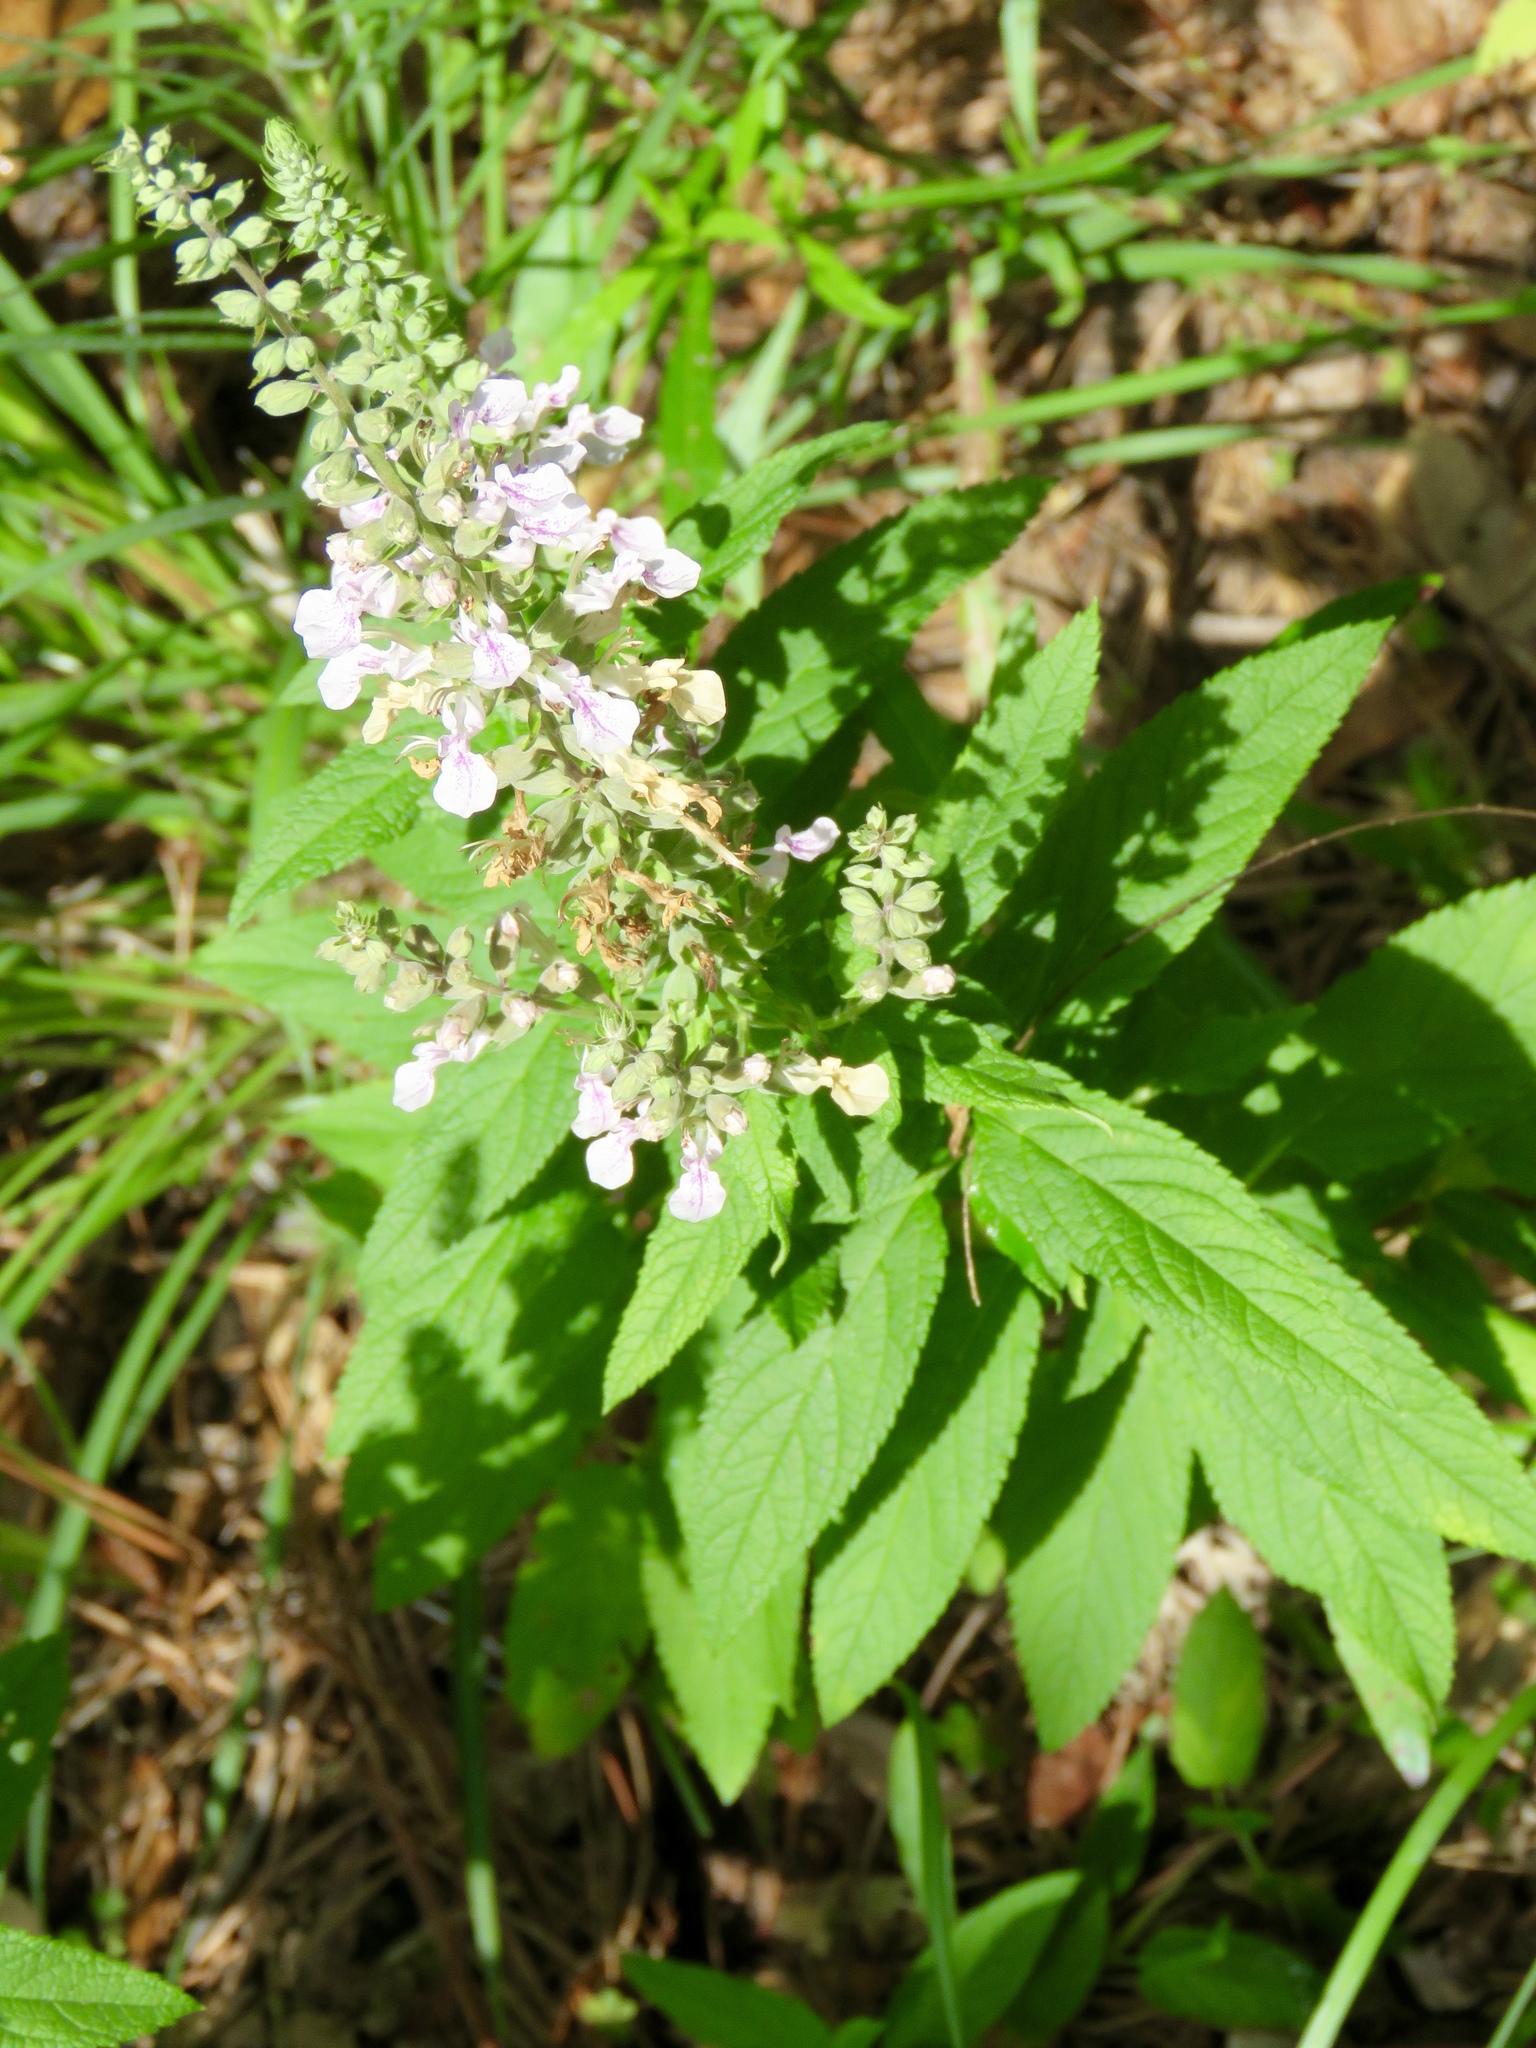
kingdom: Plantae
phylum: Tracheophyta
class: Magnoliopsida
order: Lamiales
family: Lamiaceae
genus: Teucrium
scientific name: Teucrium canadense
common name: American germander
